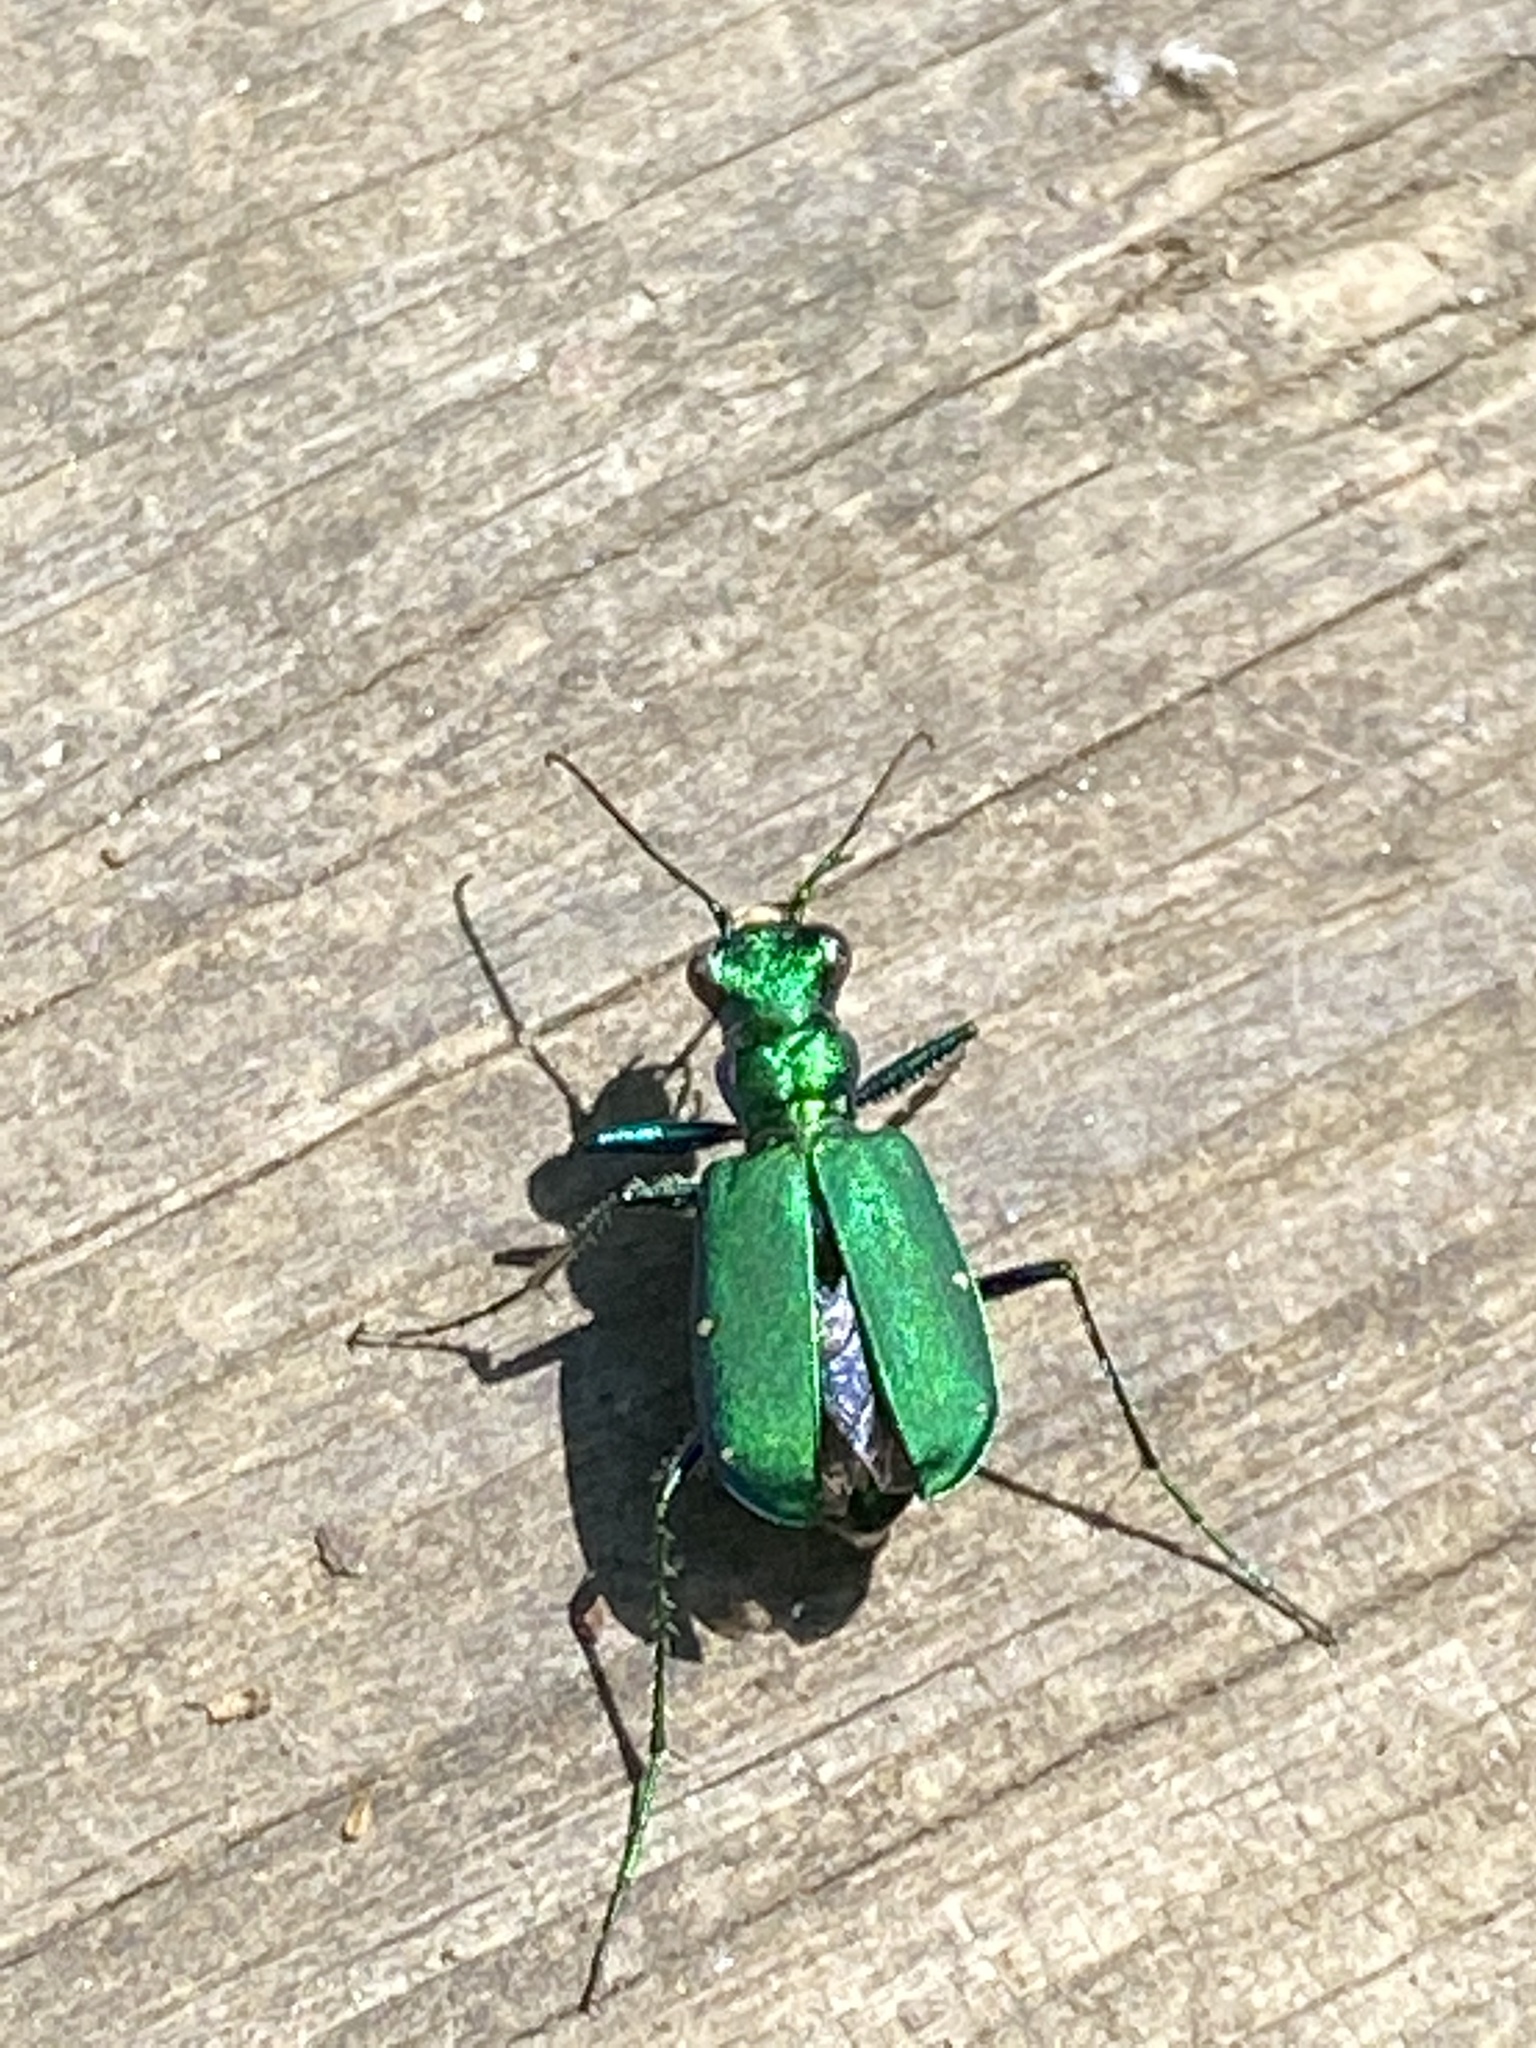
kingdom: Animalia
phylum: Arthropoda
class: Insecta
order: Coleoptera
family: Carabidae
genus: Cicindela
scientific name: Cicindela sexguttata
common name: Six-spotted tiger beetle
